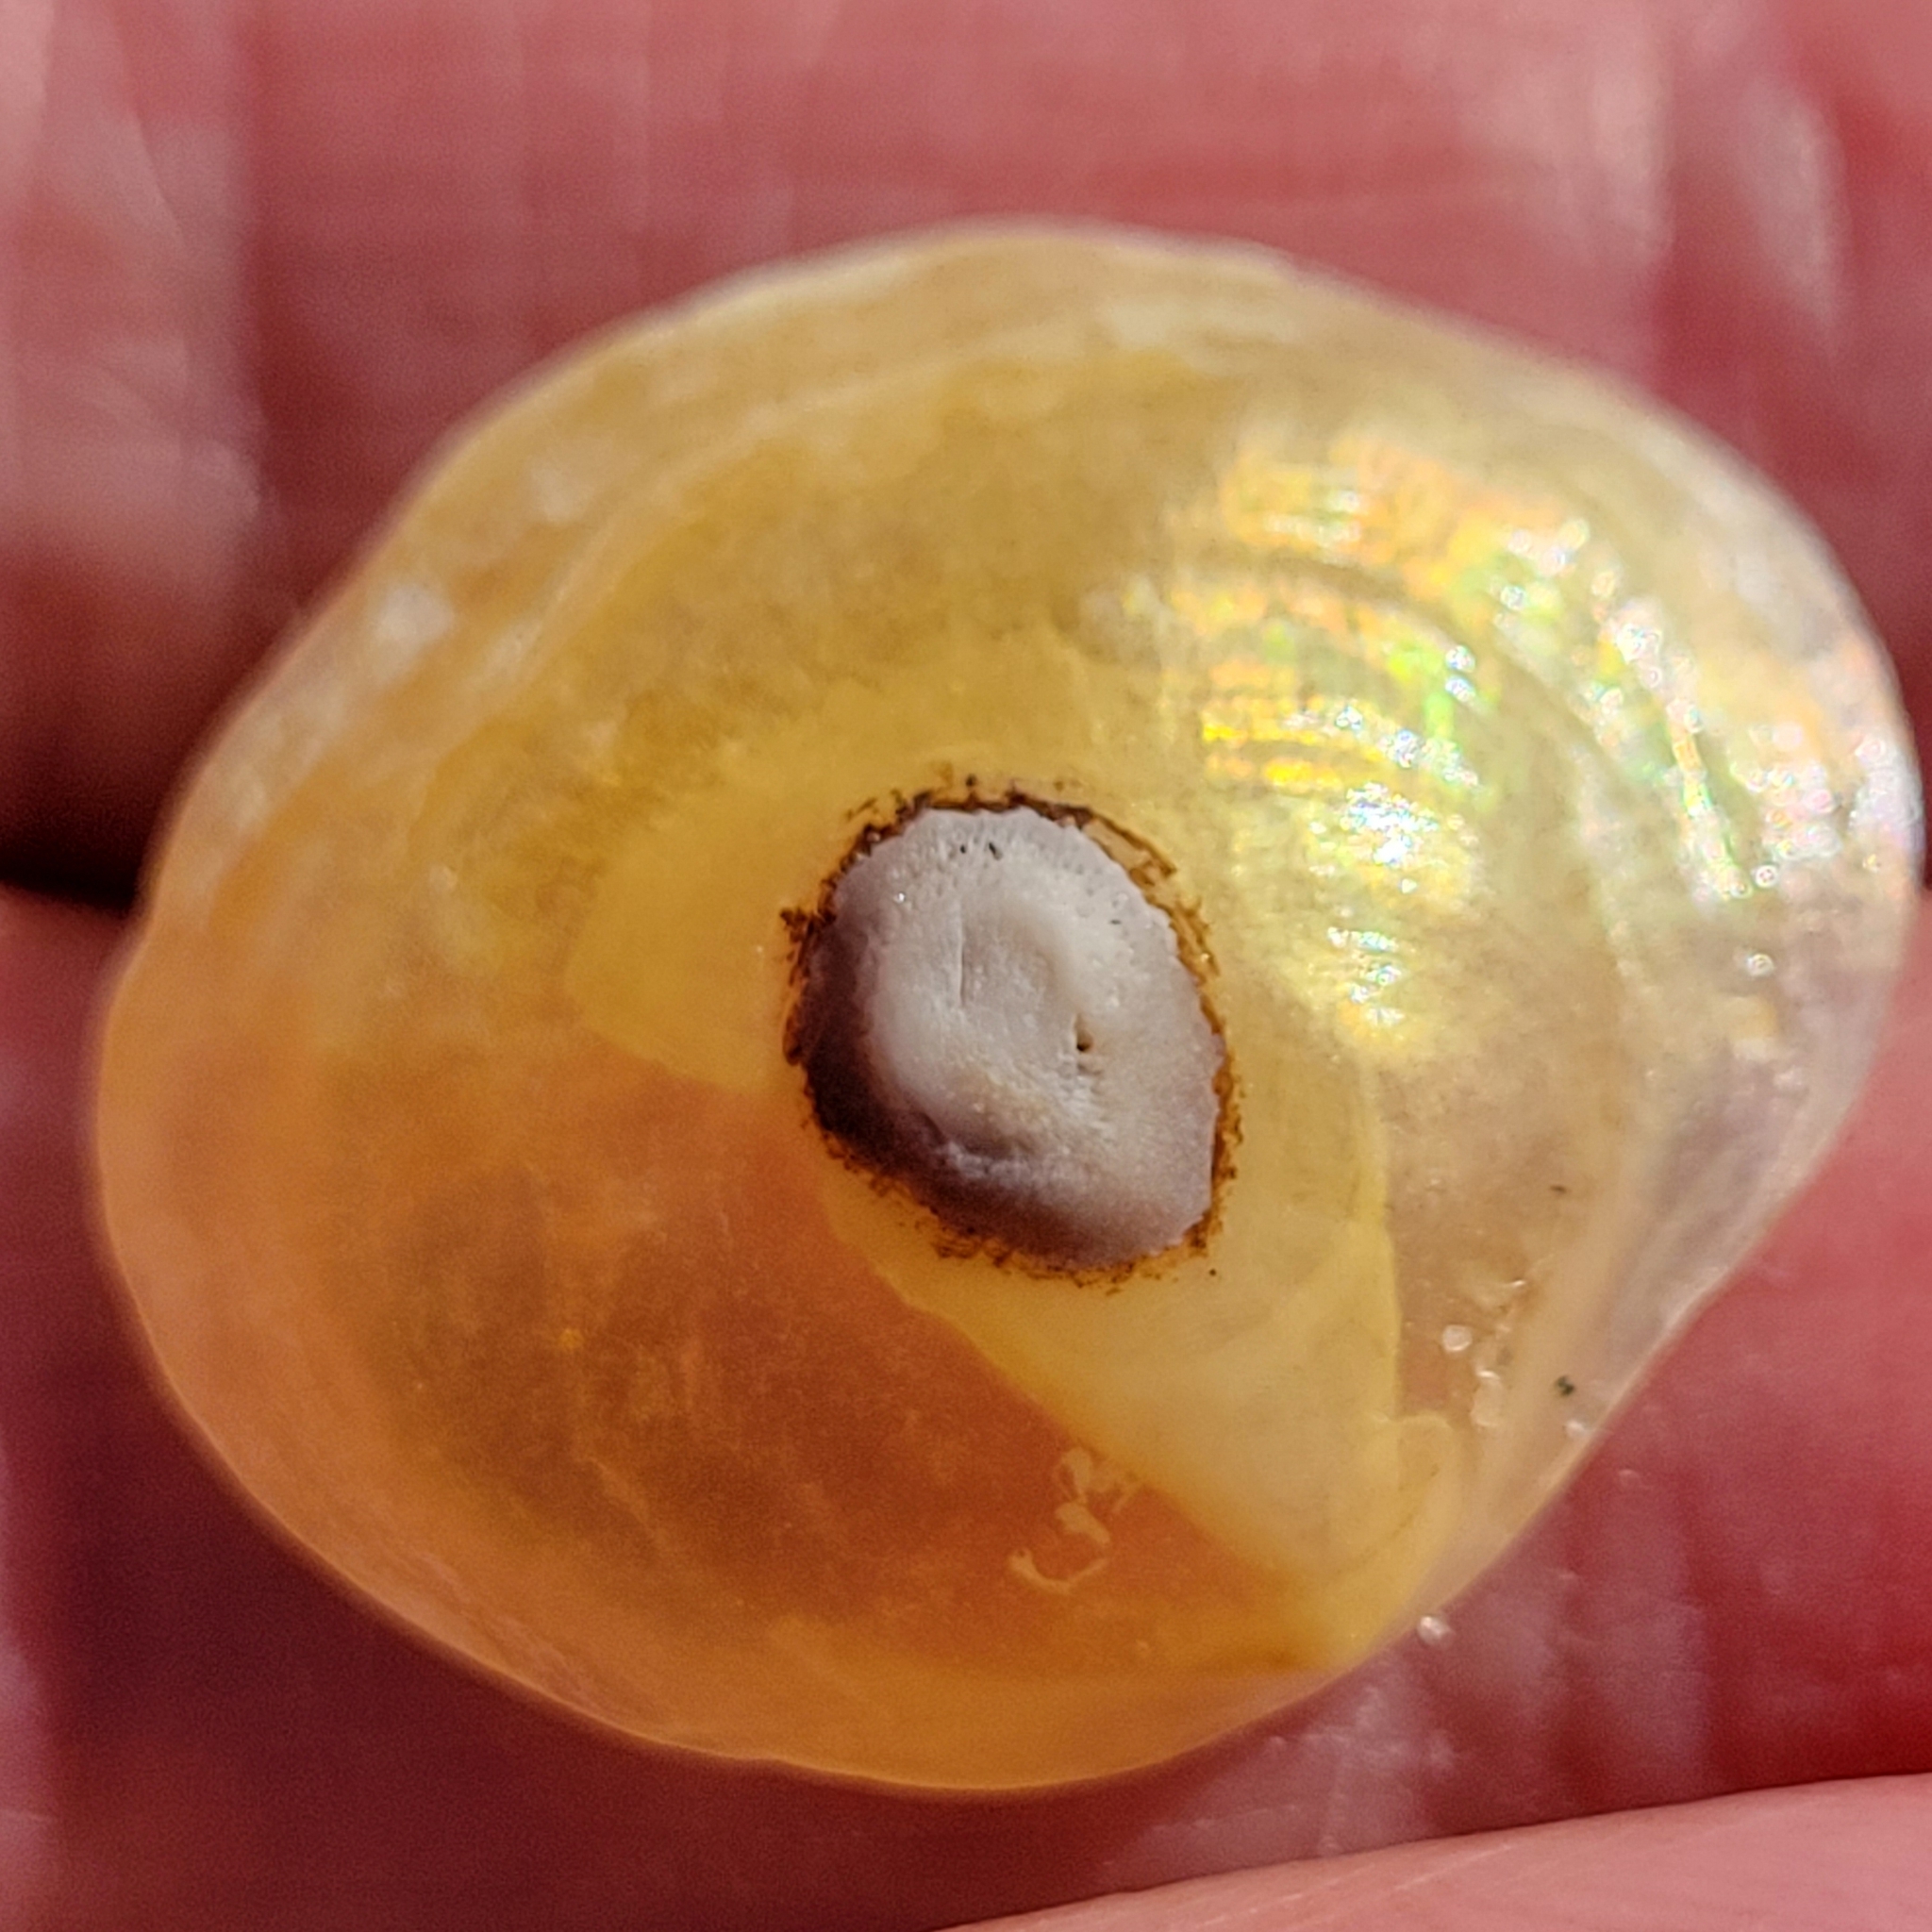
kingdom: Animalia
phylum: Mollusca
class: Bivalvia
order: Pectinida
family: Anomiidae
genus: Anomia
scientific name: Anomia simplex
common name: Common jingle shell
